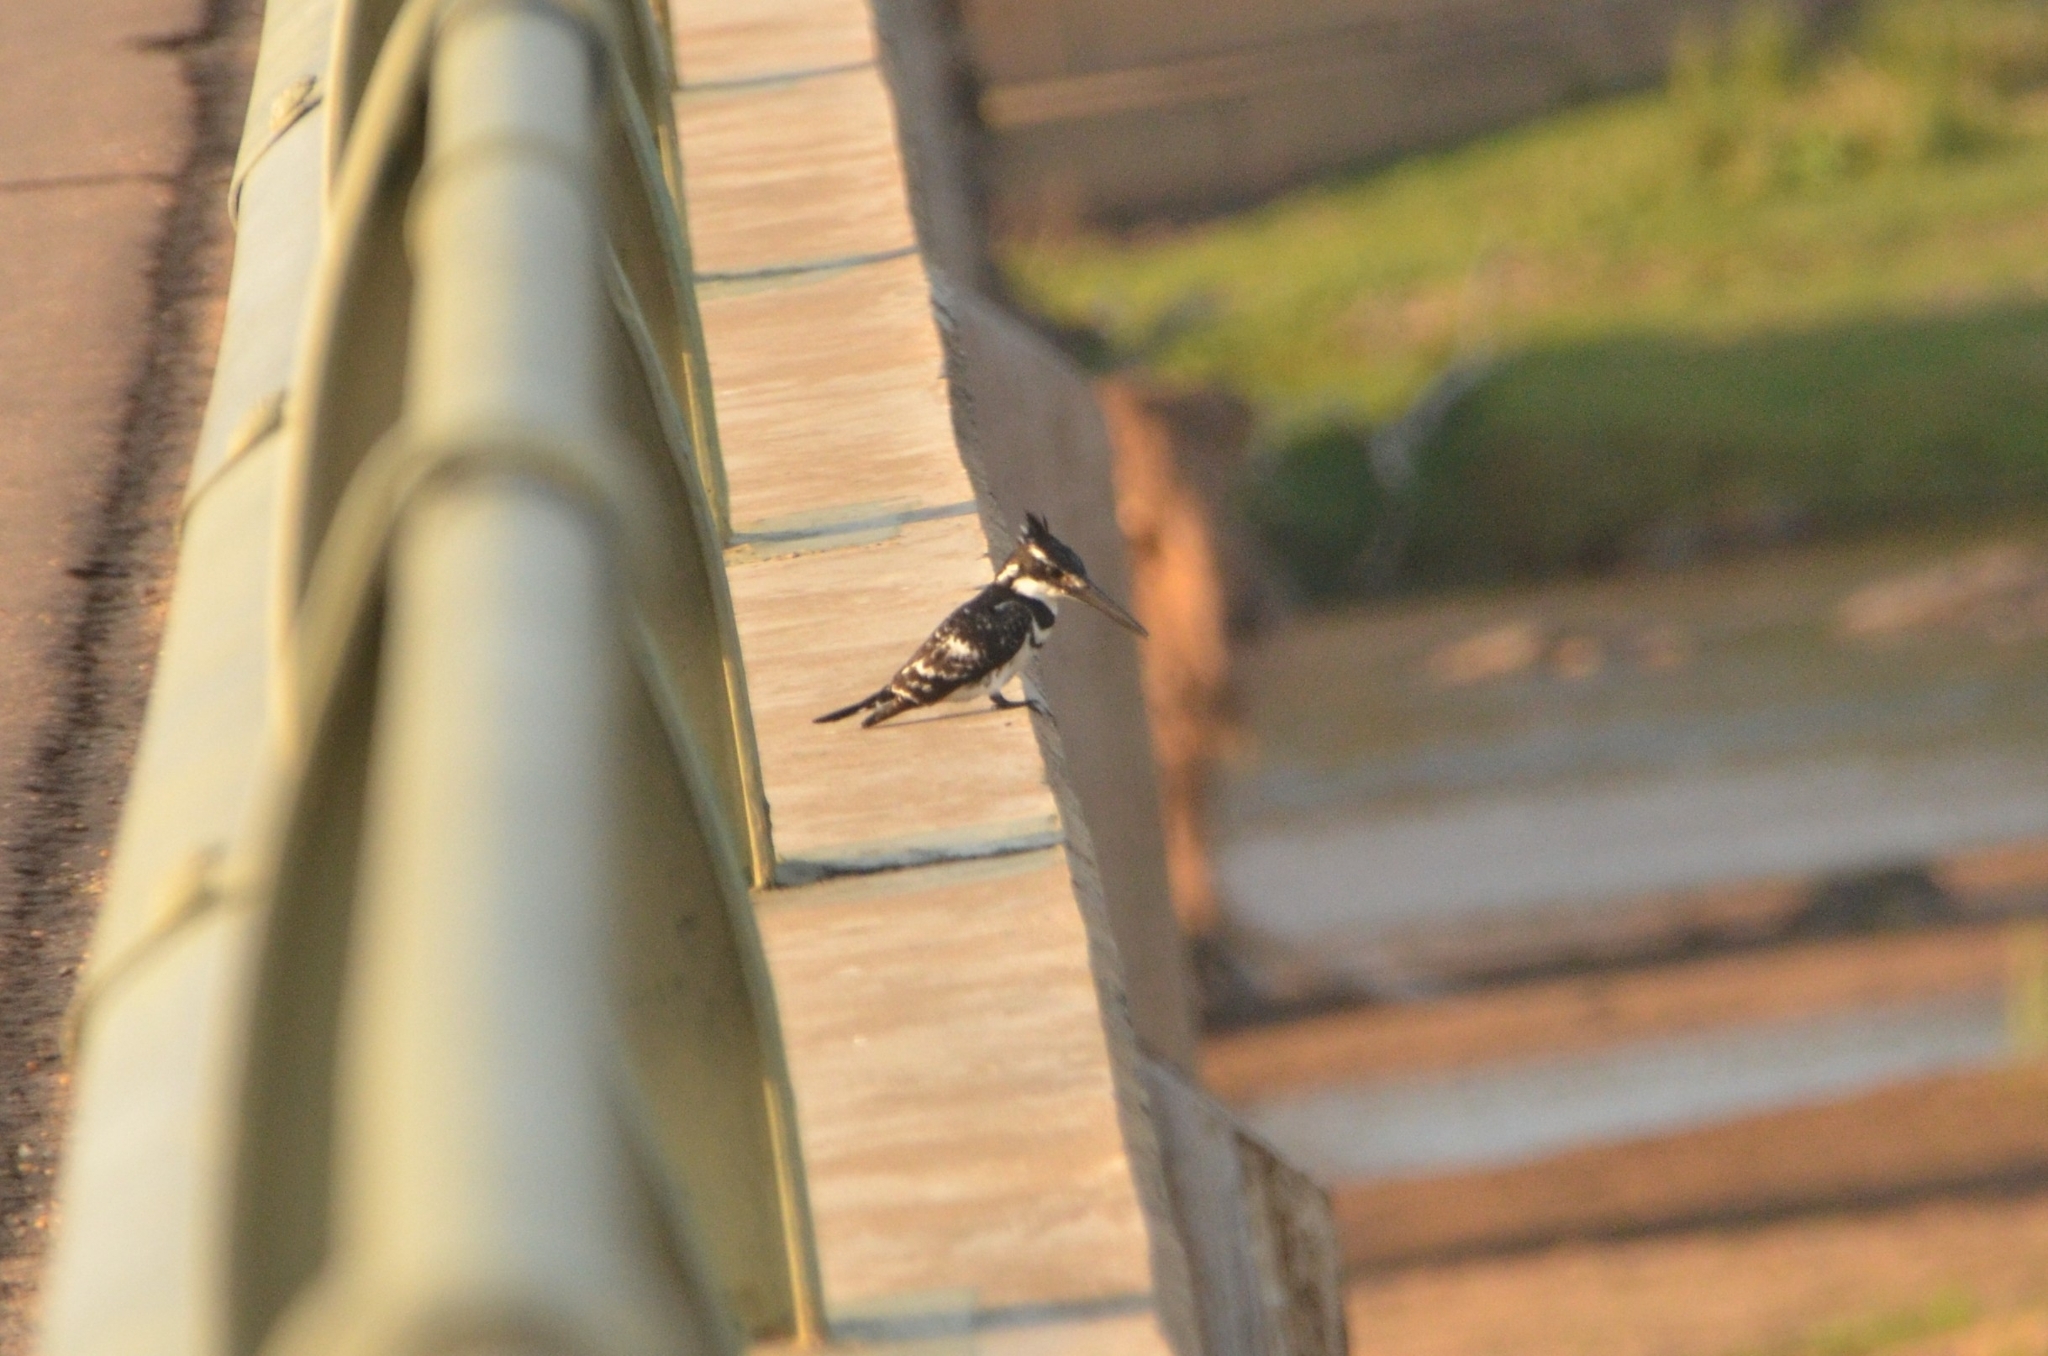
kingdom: Animalia
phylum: Chordata
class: Aves
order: Coraciiformes
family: Alcedinidae
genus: Ceryle
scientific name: Ceryle rudis
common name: Pied kingfisher
